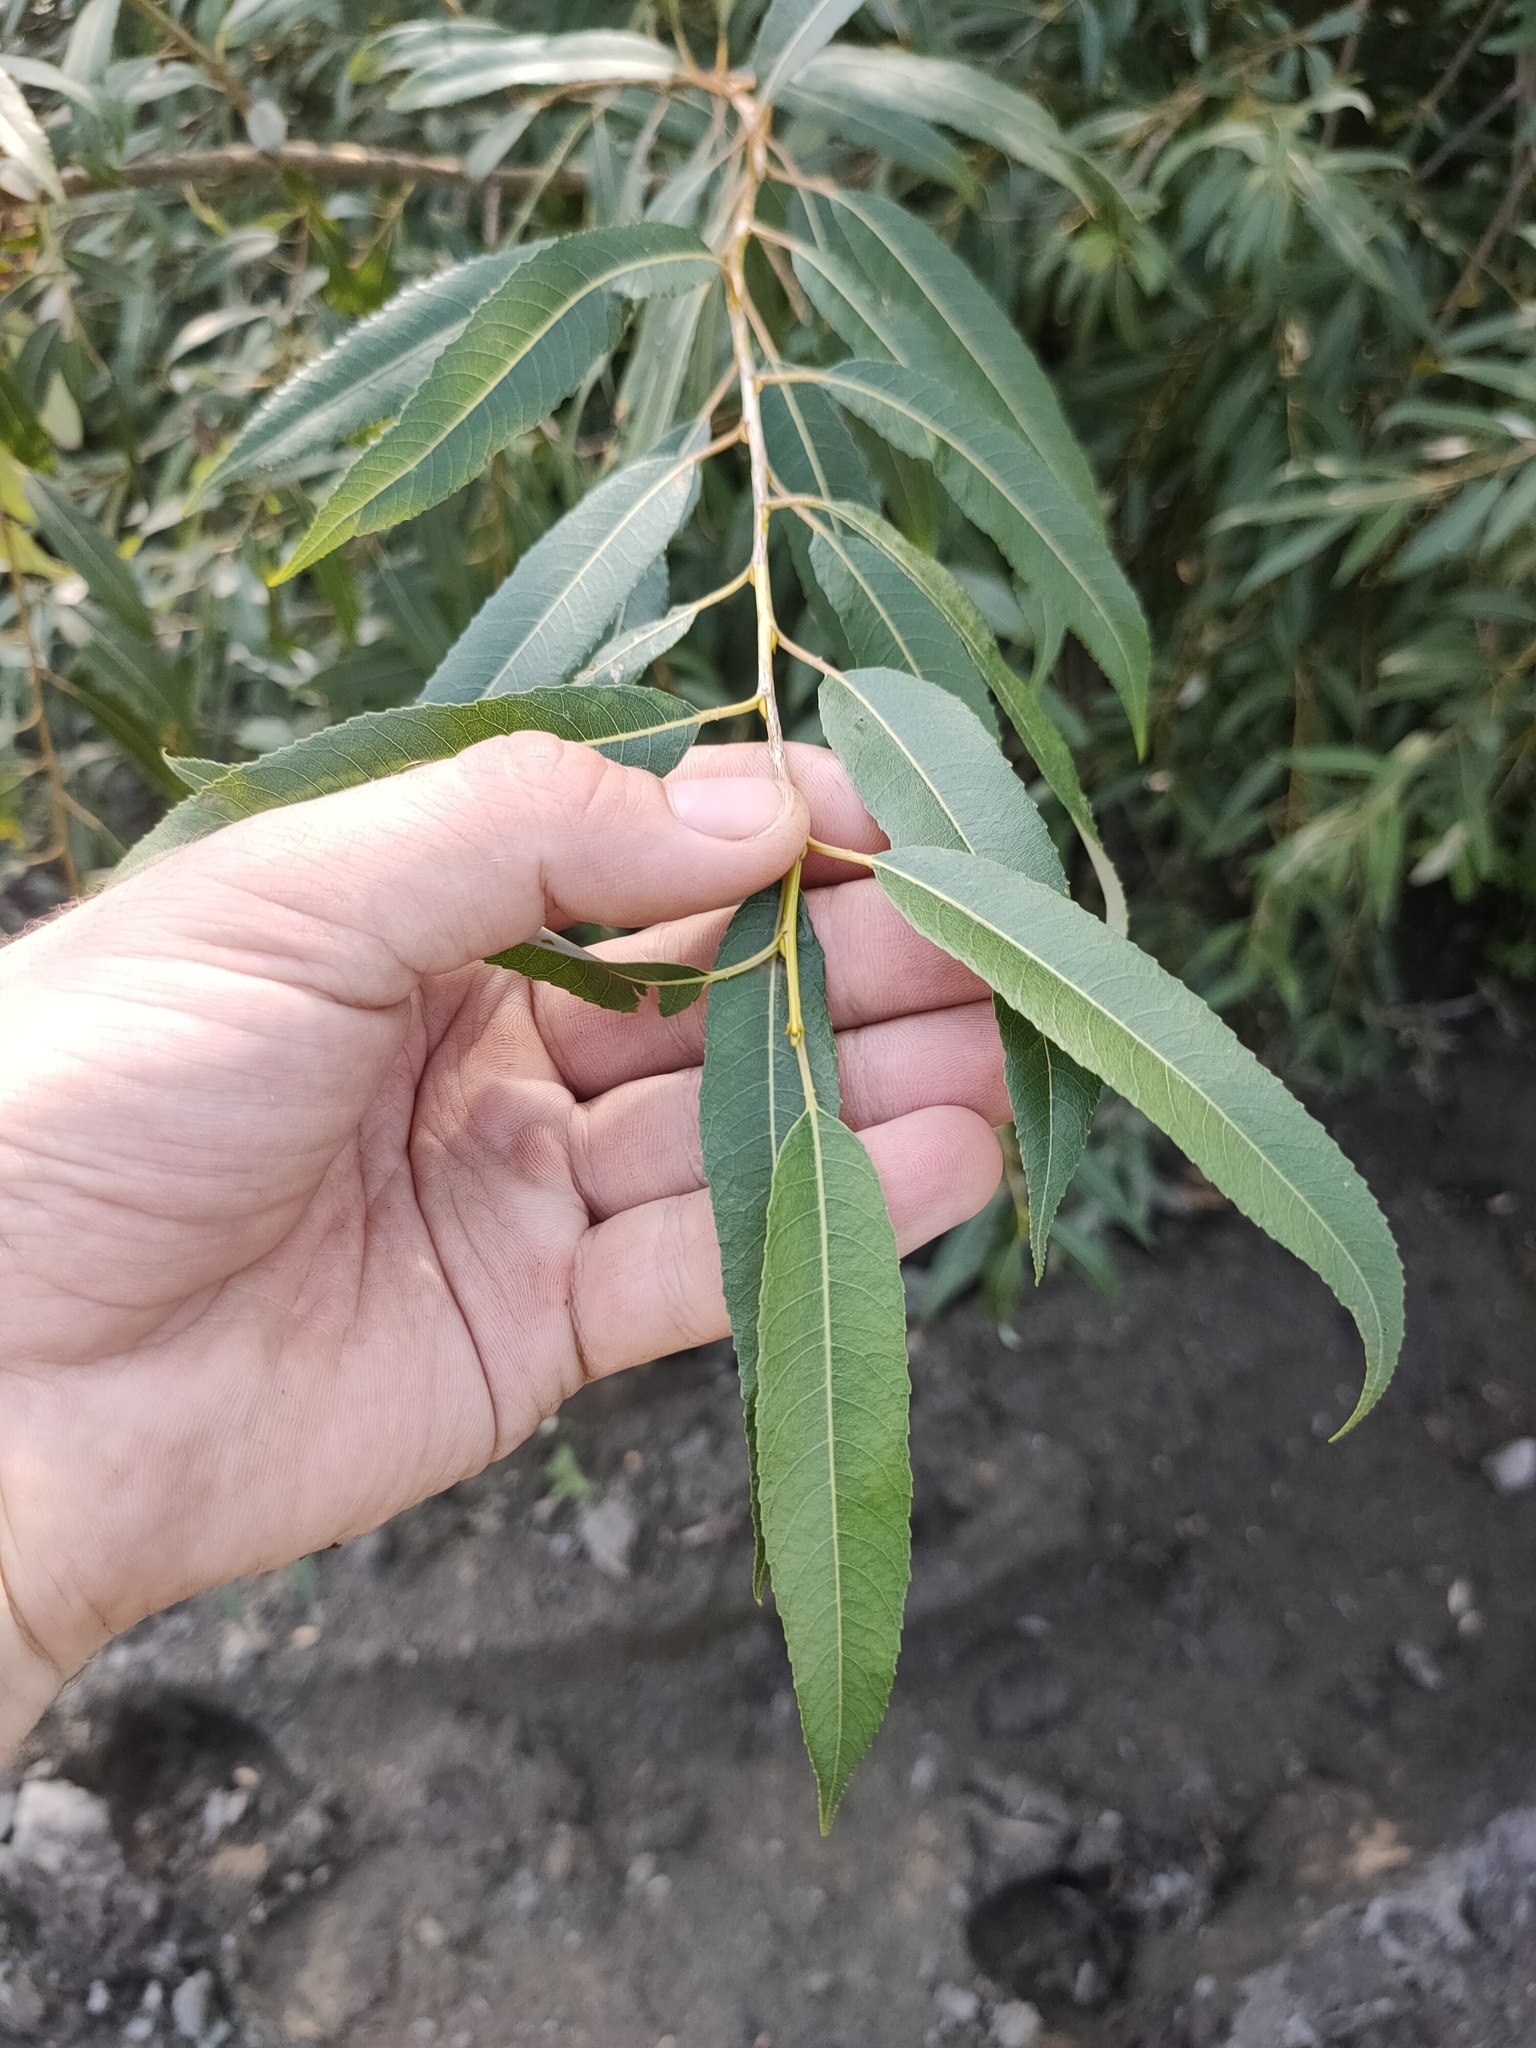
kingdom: Plantae
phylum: Tracheophyta
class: Magnoliopsida
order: Malpighiales
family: Salicaceae
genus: Salix
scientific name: Salix triandra
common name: Almond willow
